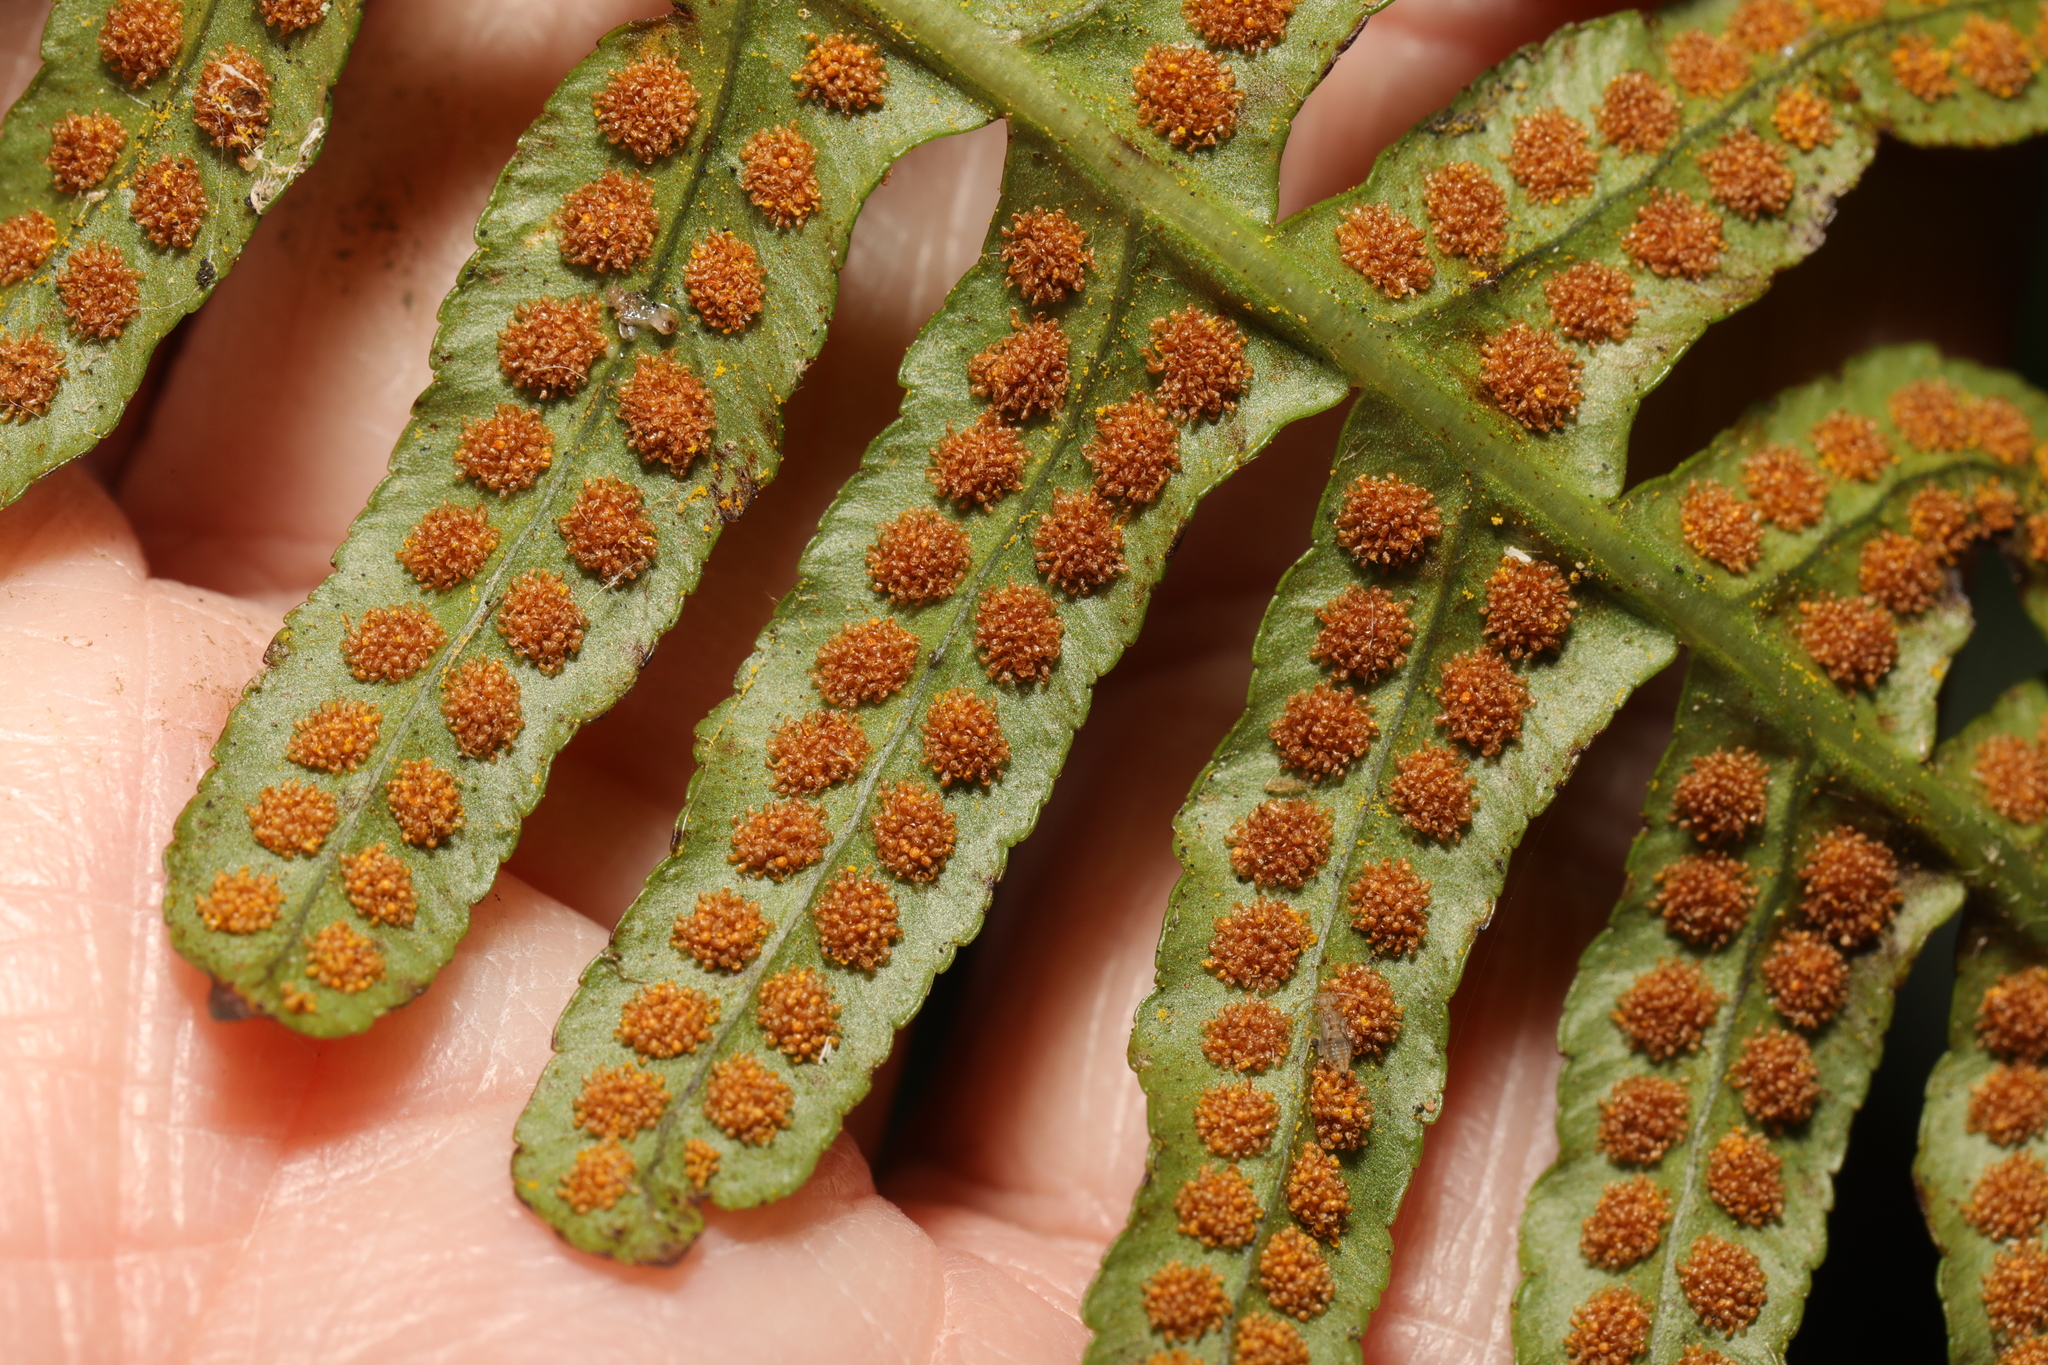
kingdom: Plantae
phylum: Tracheophyta
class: Polypodiopsida
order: Polypodiales
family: Polypodiaceae
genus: Polypodium
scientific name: Polypodium
